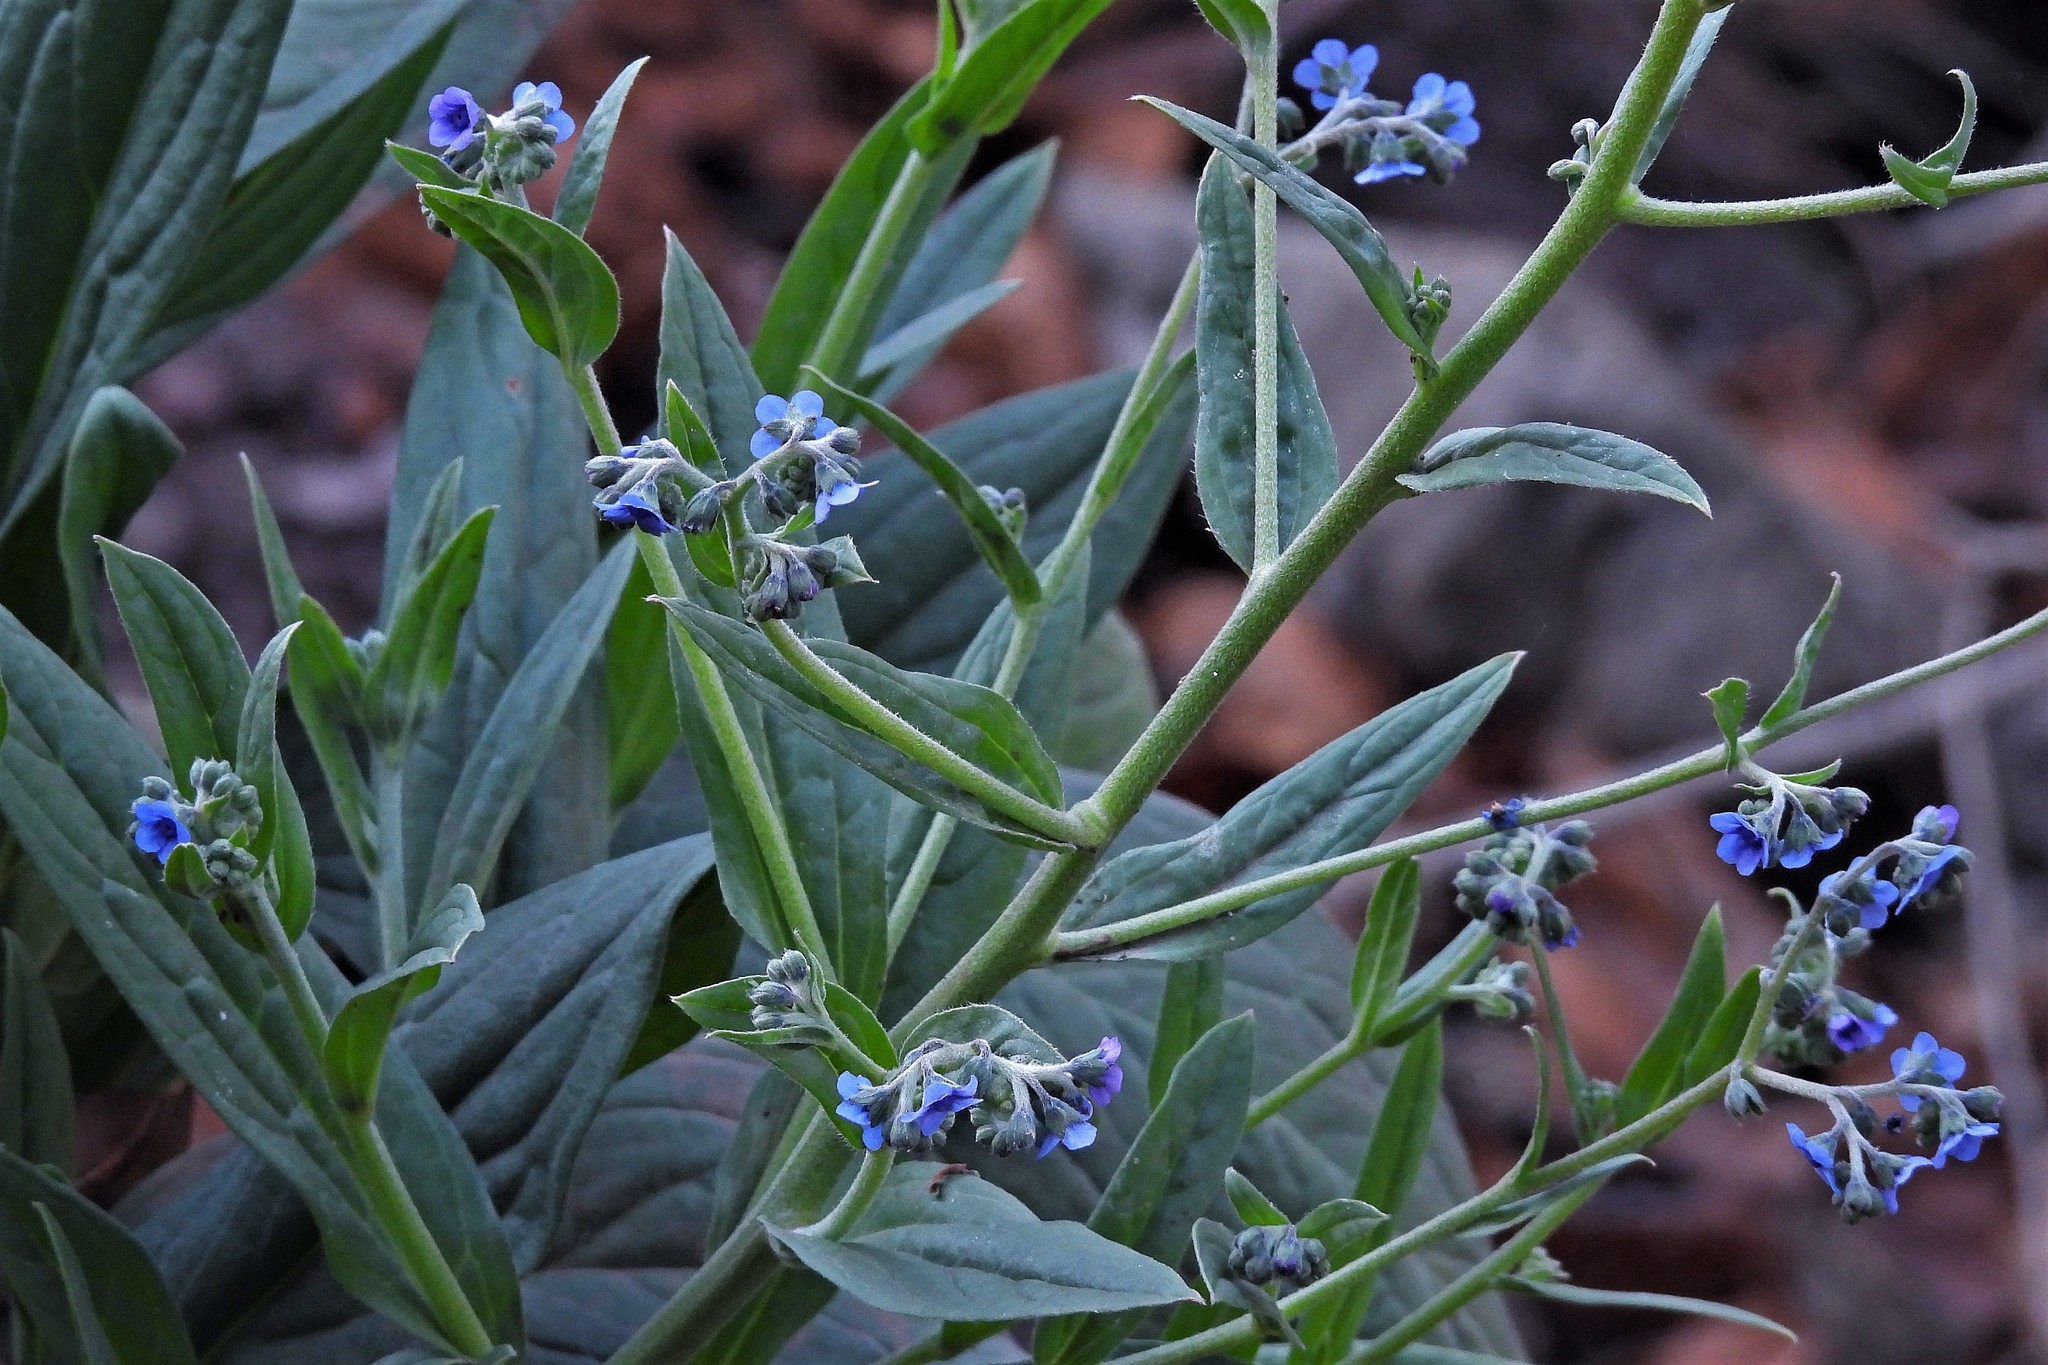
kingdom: Plantae
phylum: Tracheophyta
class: Magnoliopsida
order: Boraginales
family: Boraginaceae
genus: Cynoglossum
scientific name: Cynoglossum amabile
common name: Chinese hound's tongue
